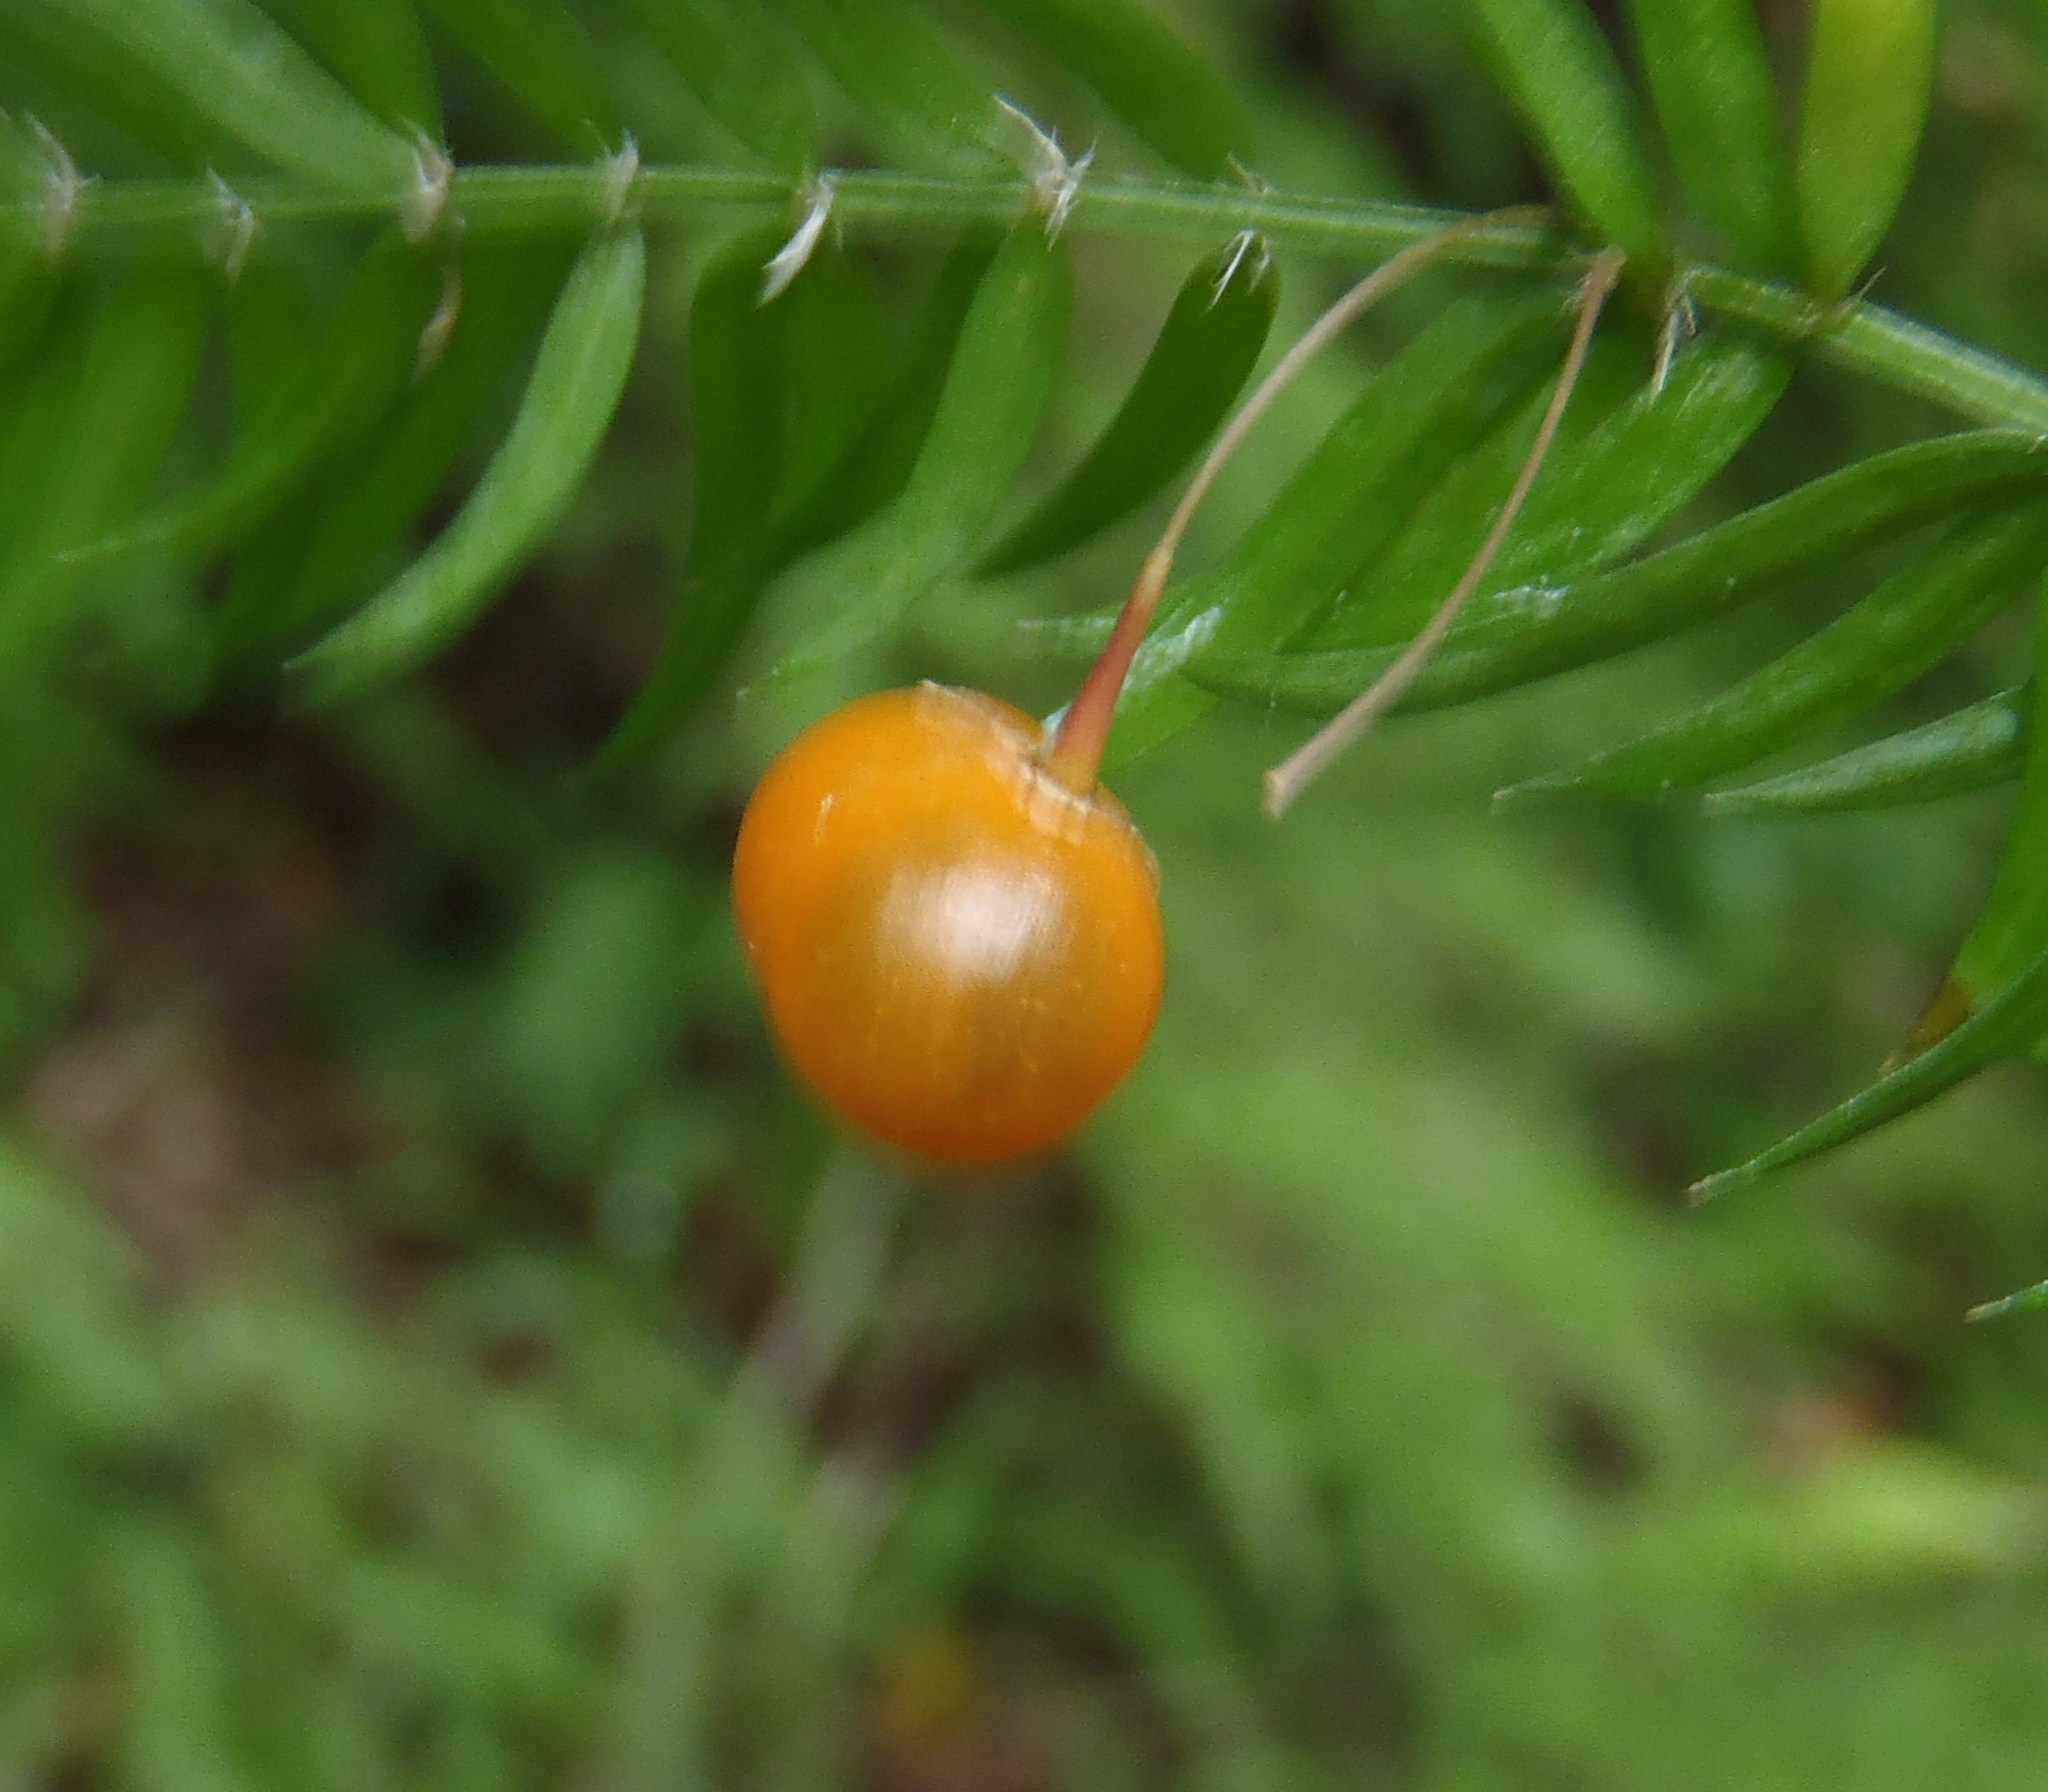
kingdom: Plantae
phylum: Tracheophyta
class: Liliopsida
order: Asparagales
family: Asparagaceae
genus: Asparagus
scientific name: Asparagus scandens
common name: Asparagus-fern
